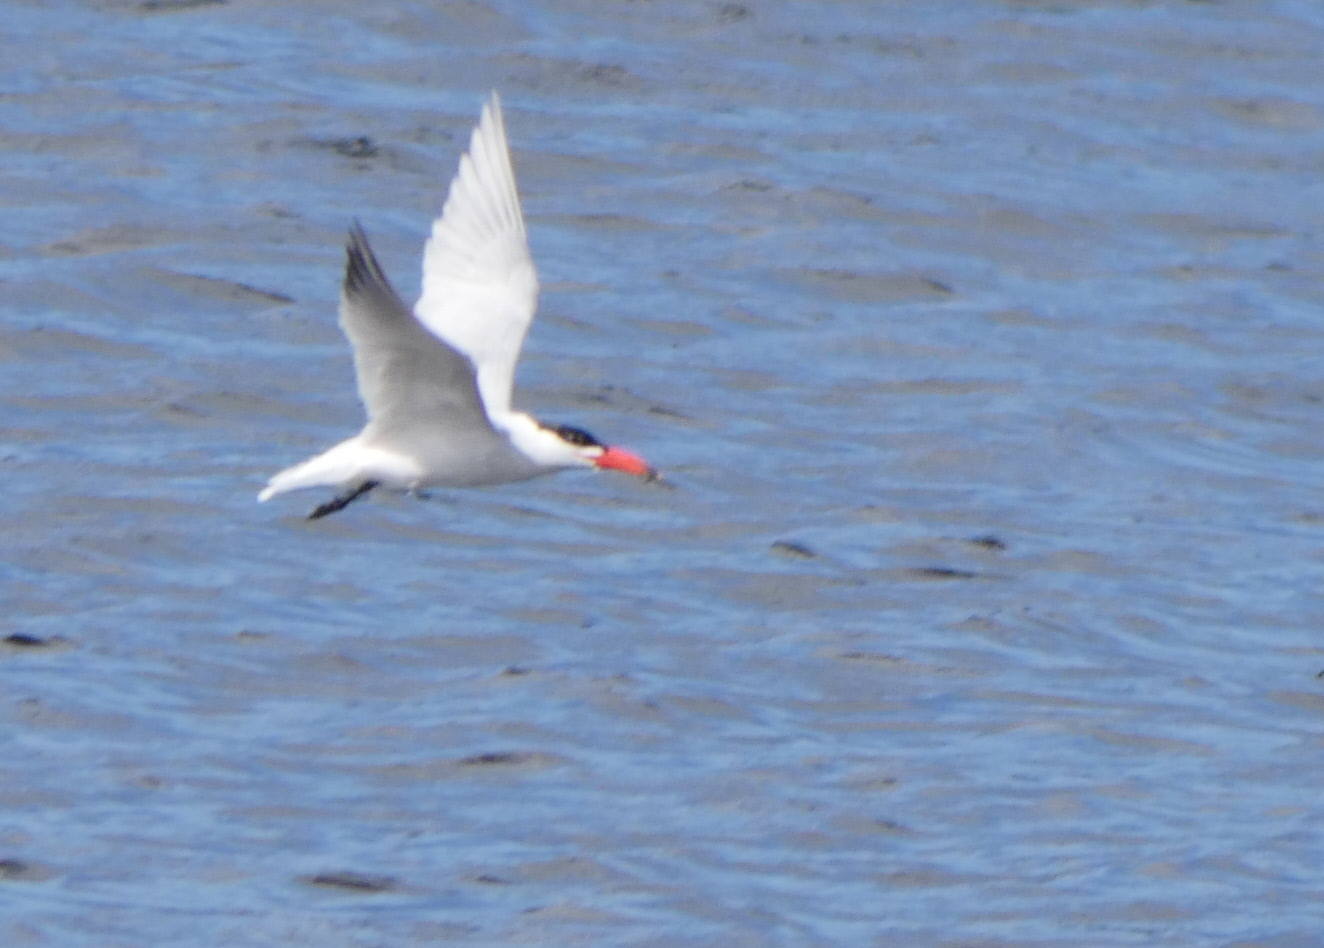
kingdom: Animalia
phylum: Chordata
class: Aves
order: Charadriiformes
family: Laridae
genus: Hydroprogne
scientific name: Hydroprogne caspia
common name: Caspian tern
